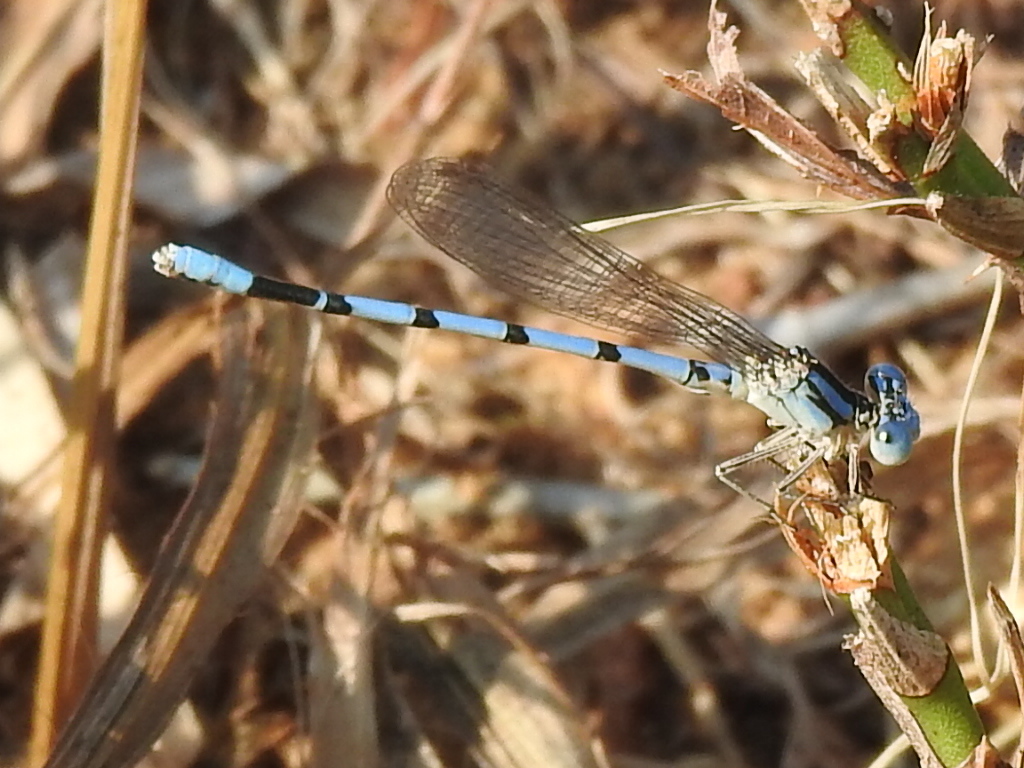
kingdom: Animalia
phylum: Arthropoda
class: Insecta
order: Odonata
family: Coenagrionidae
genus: Argia
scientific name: Argia nahuana
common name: Aztec dancer
